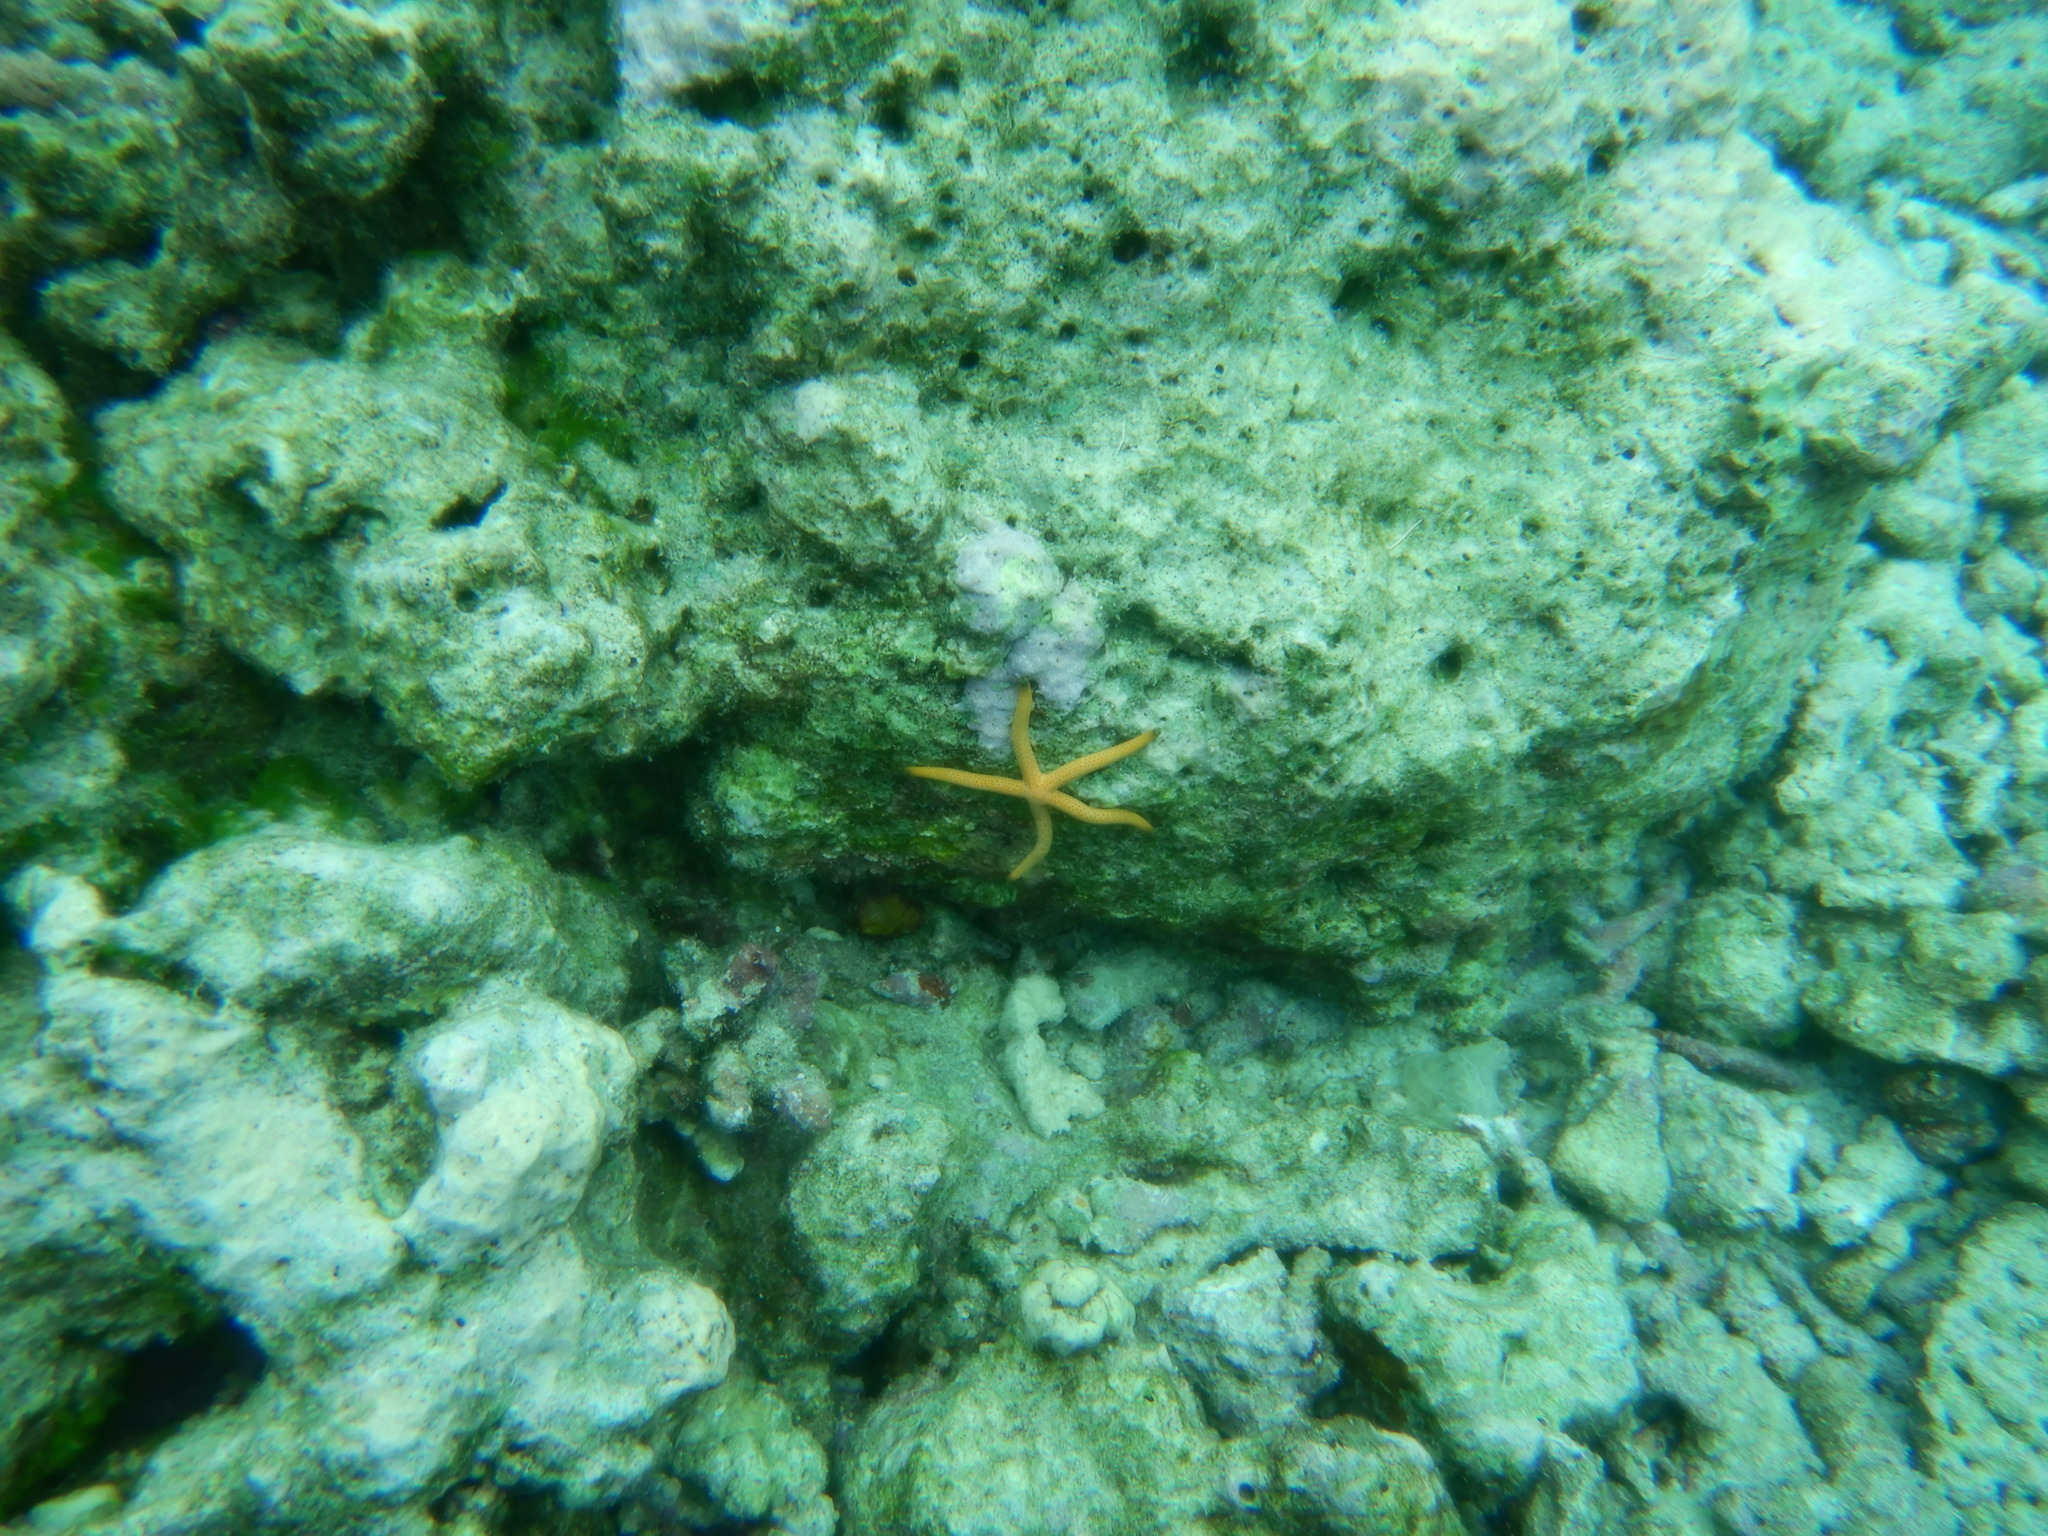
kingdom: Animalia
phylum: Echinodermata
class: Asteroidea
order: Valvatida
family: Ophidiasteridae
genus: Linckia
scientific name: Linckia multifora
